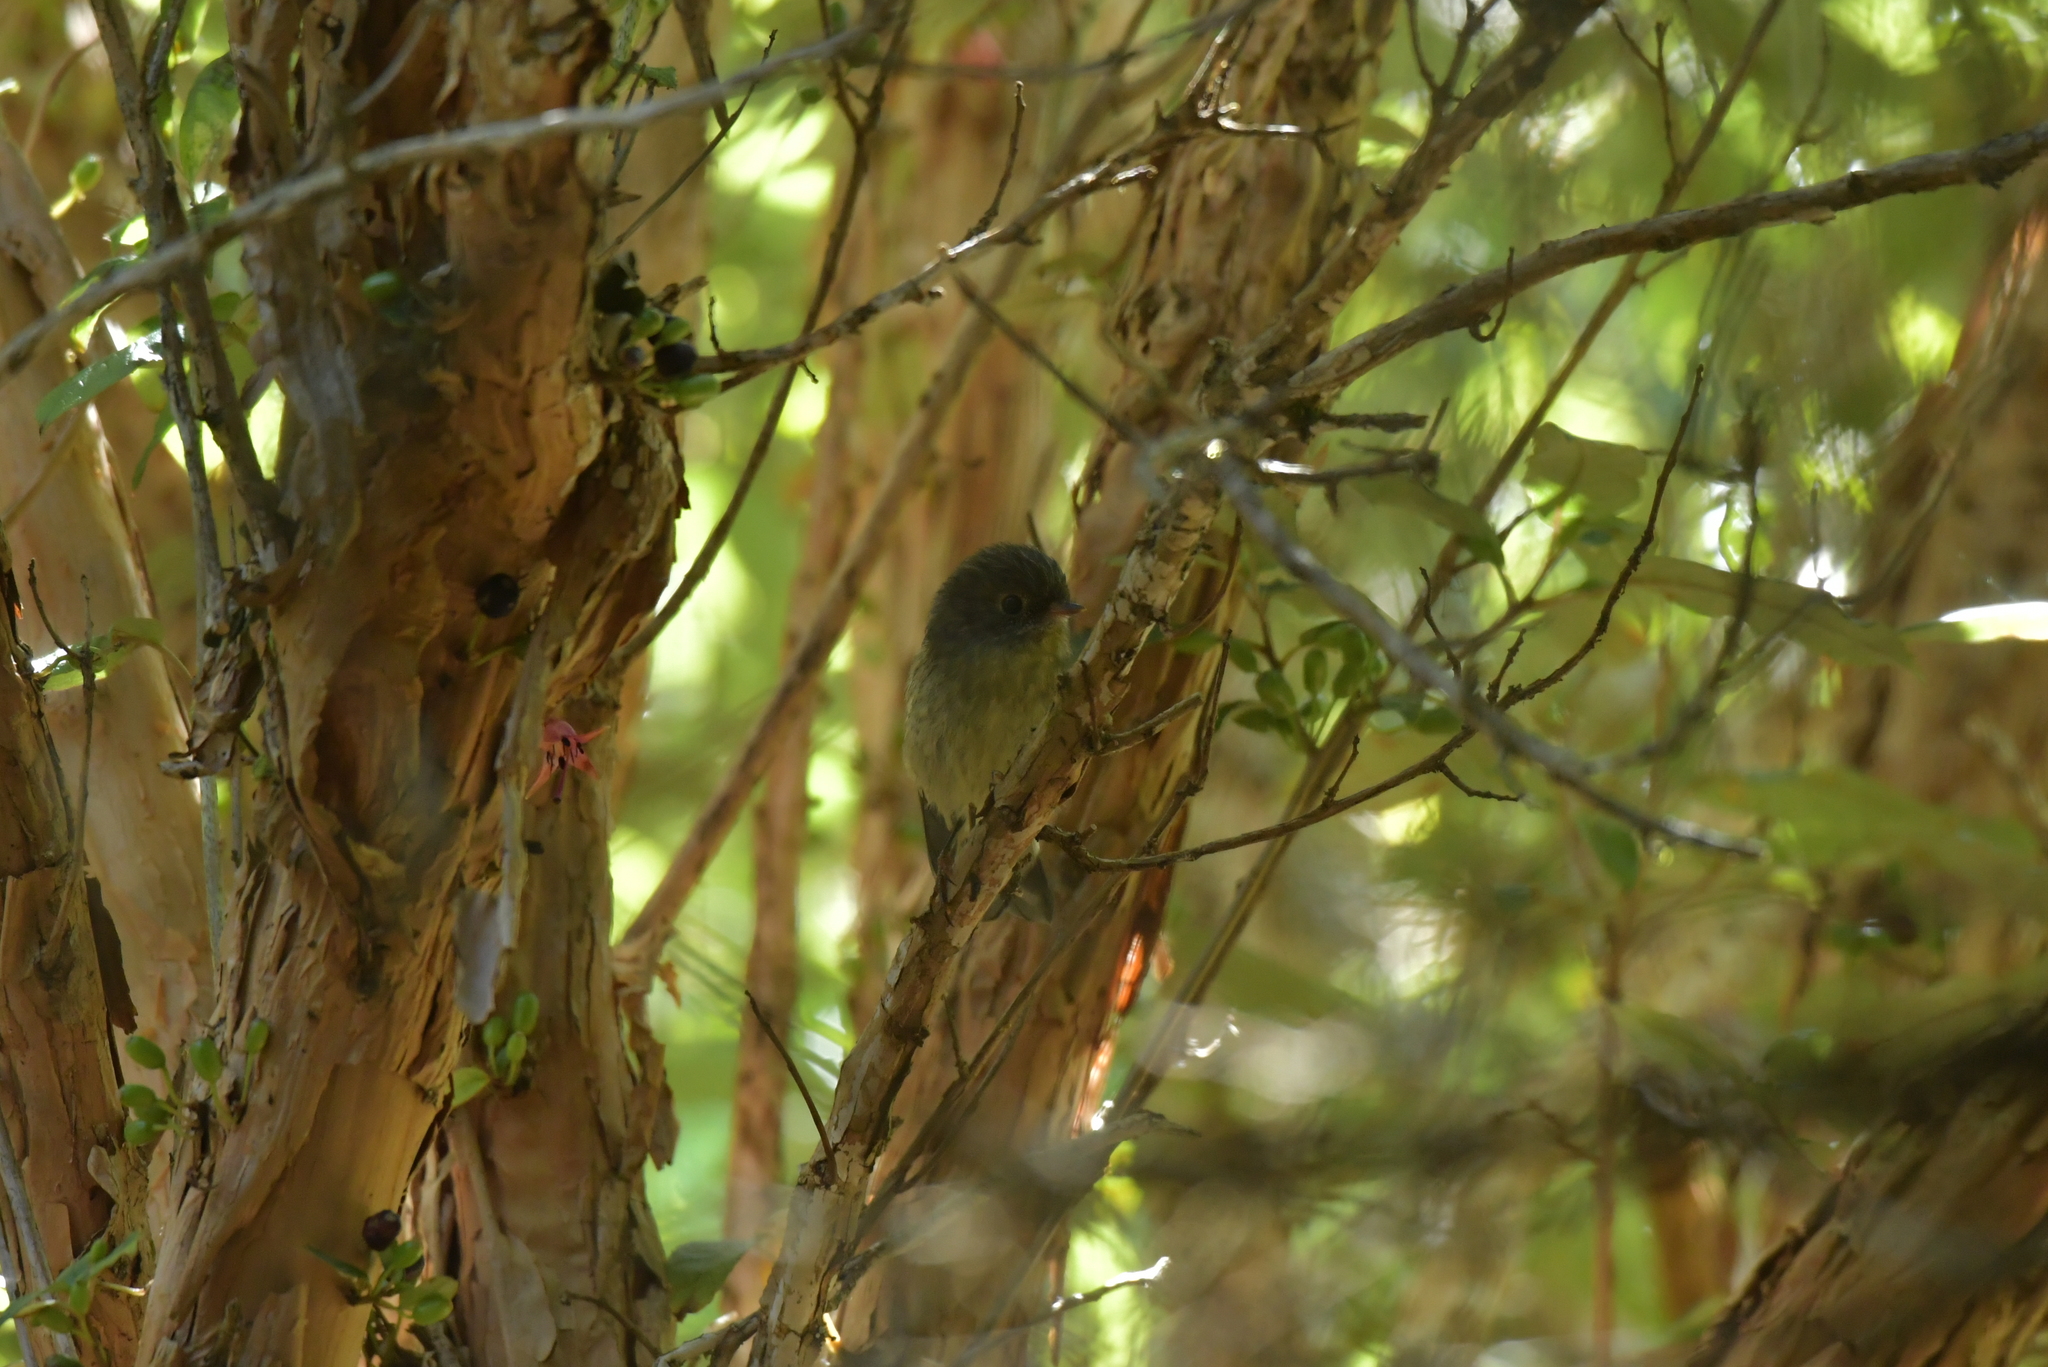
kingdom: Animalia
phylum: Chordata
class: Aves
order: Passeriformes
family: Petroicidae
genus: Petroica
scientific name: Petroica macrocephala
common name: Tomtit
